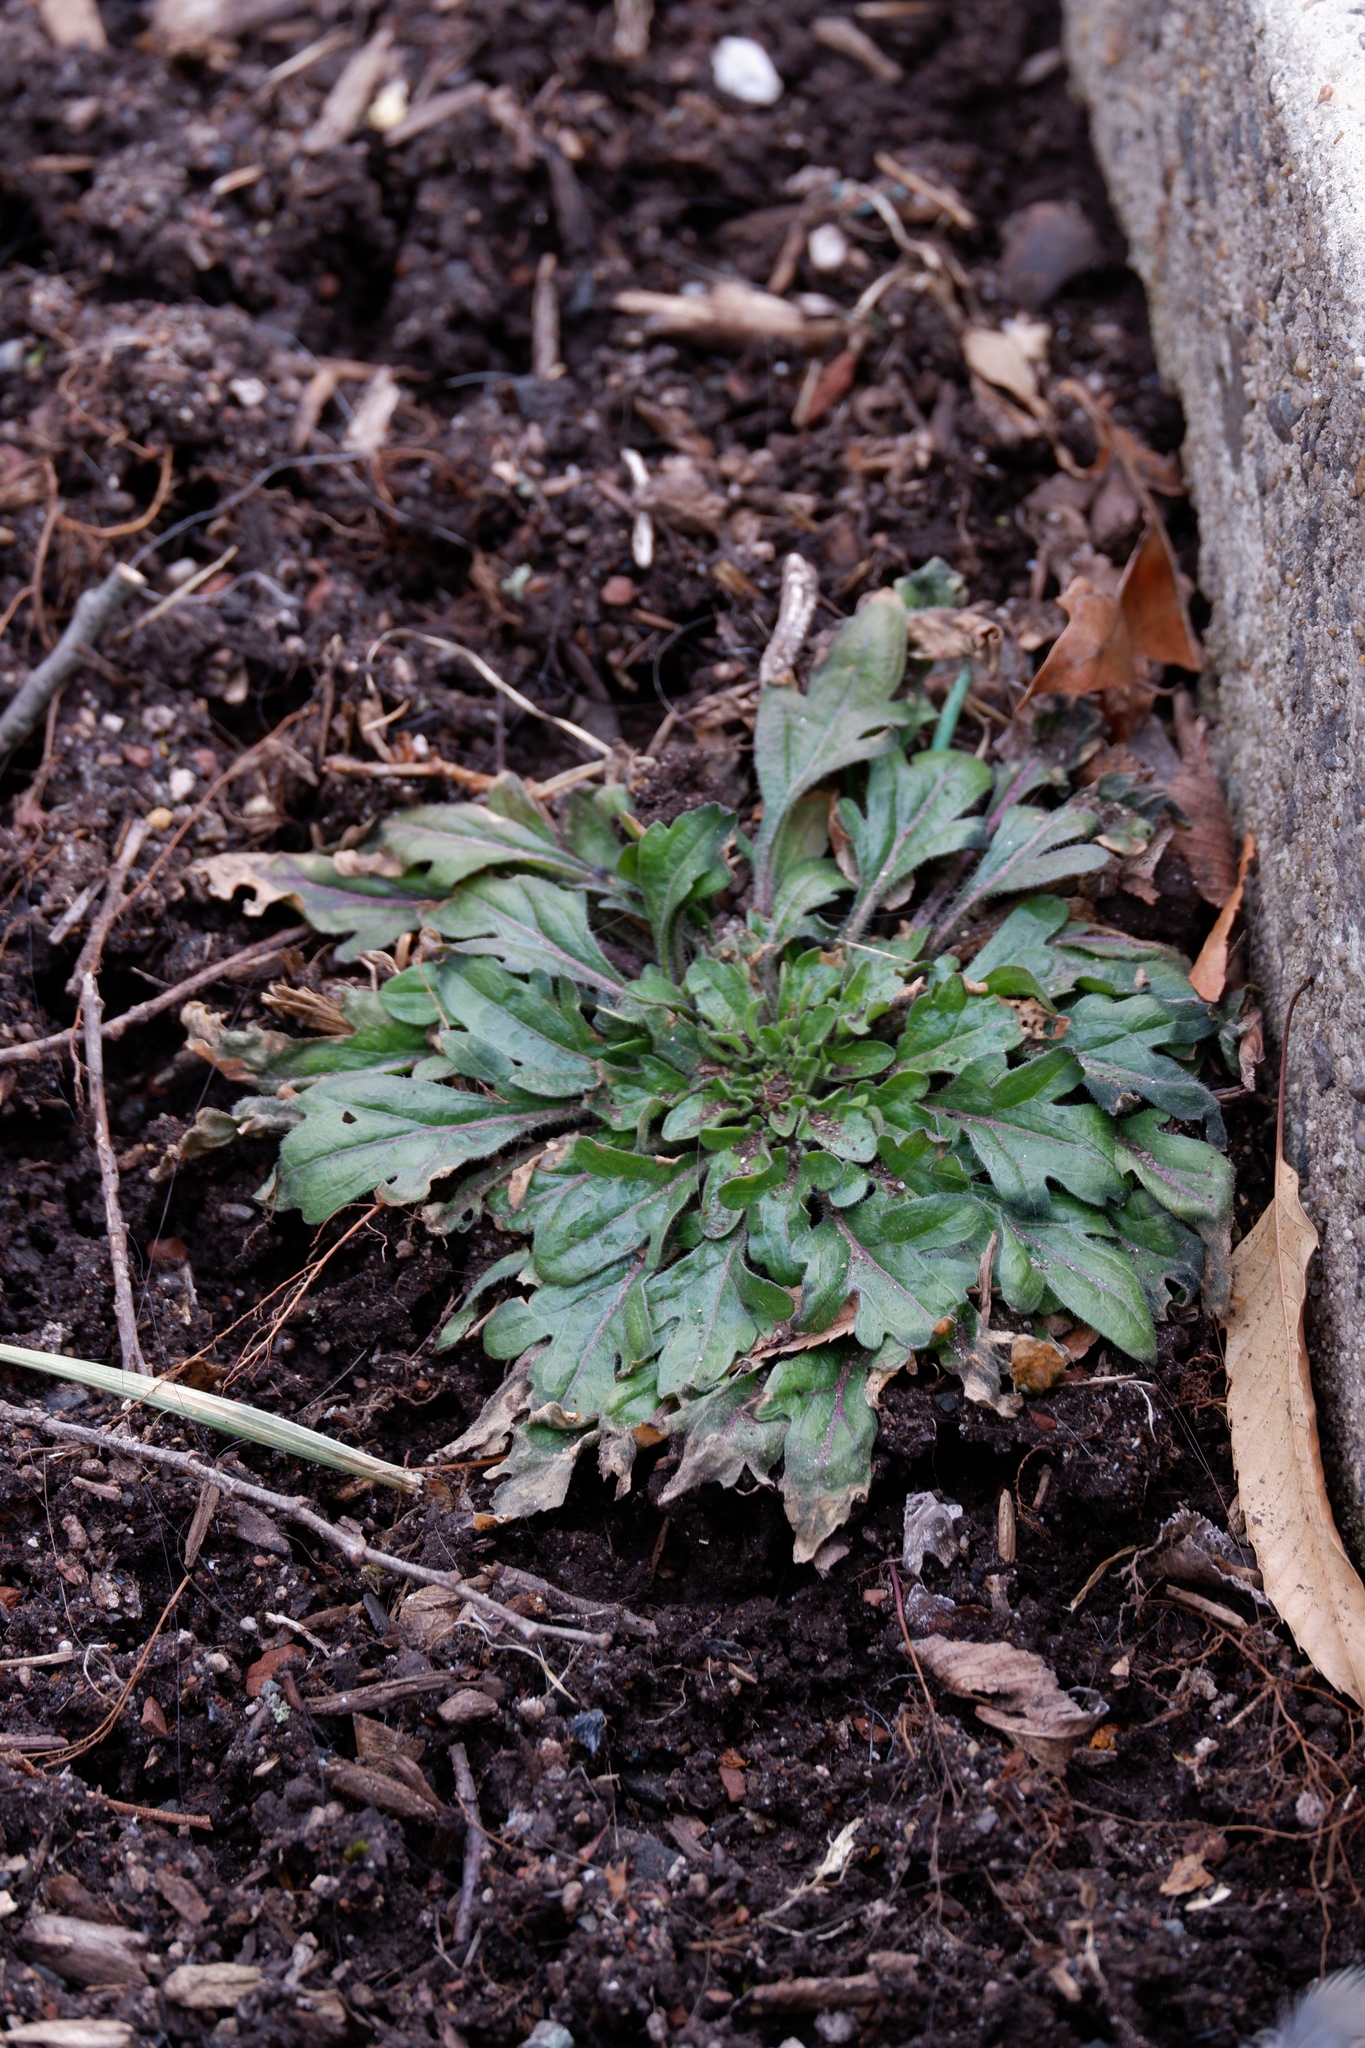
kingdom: Plantae
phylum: Tracheophyta
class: Magnoliopsida
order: Asterales
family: Asteraceae
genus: Erigeron
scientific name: Erigeron canadensis
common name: Canadian fleabane
